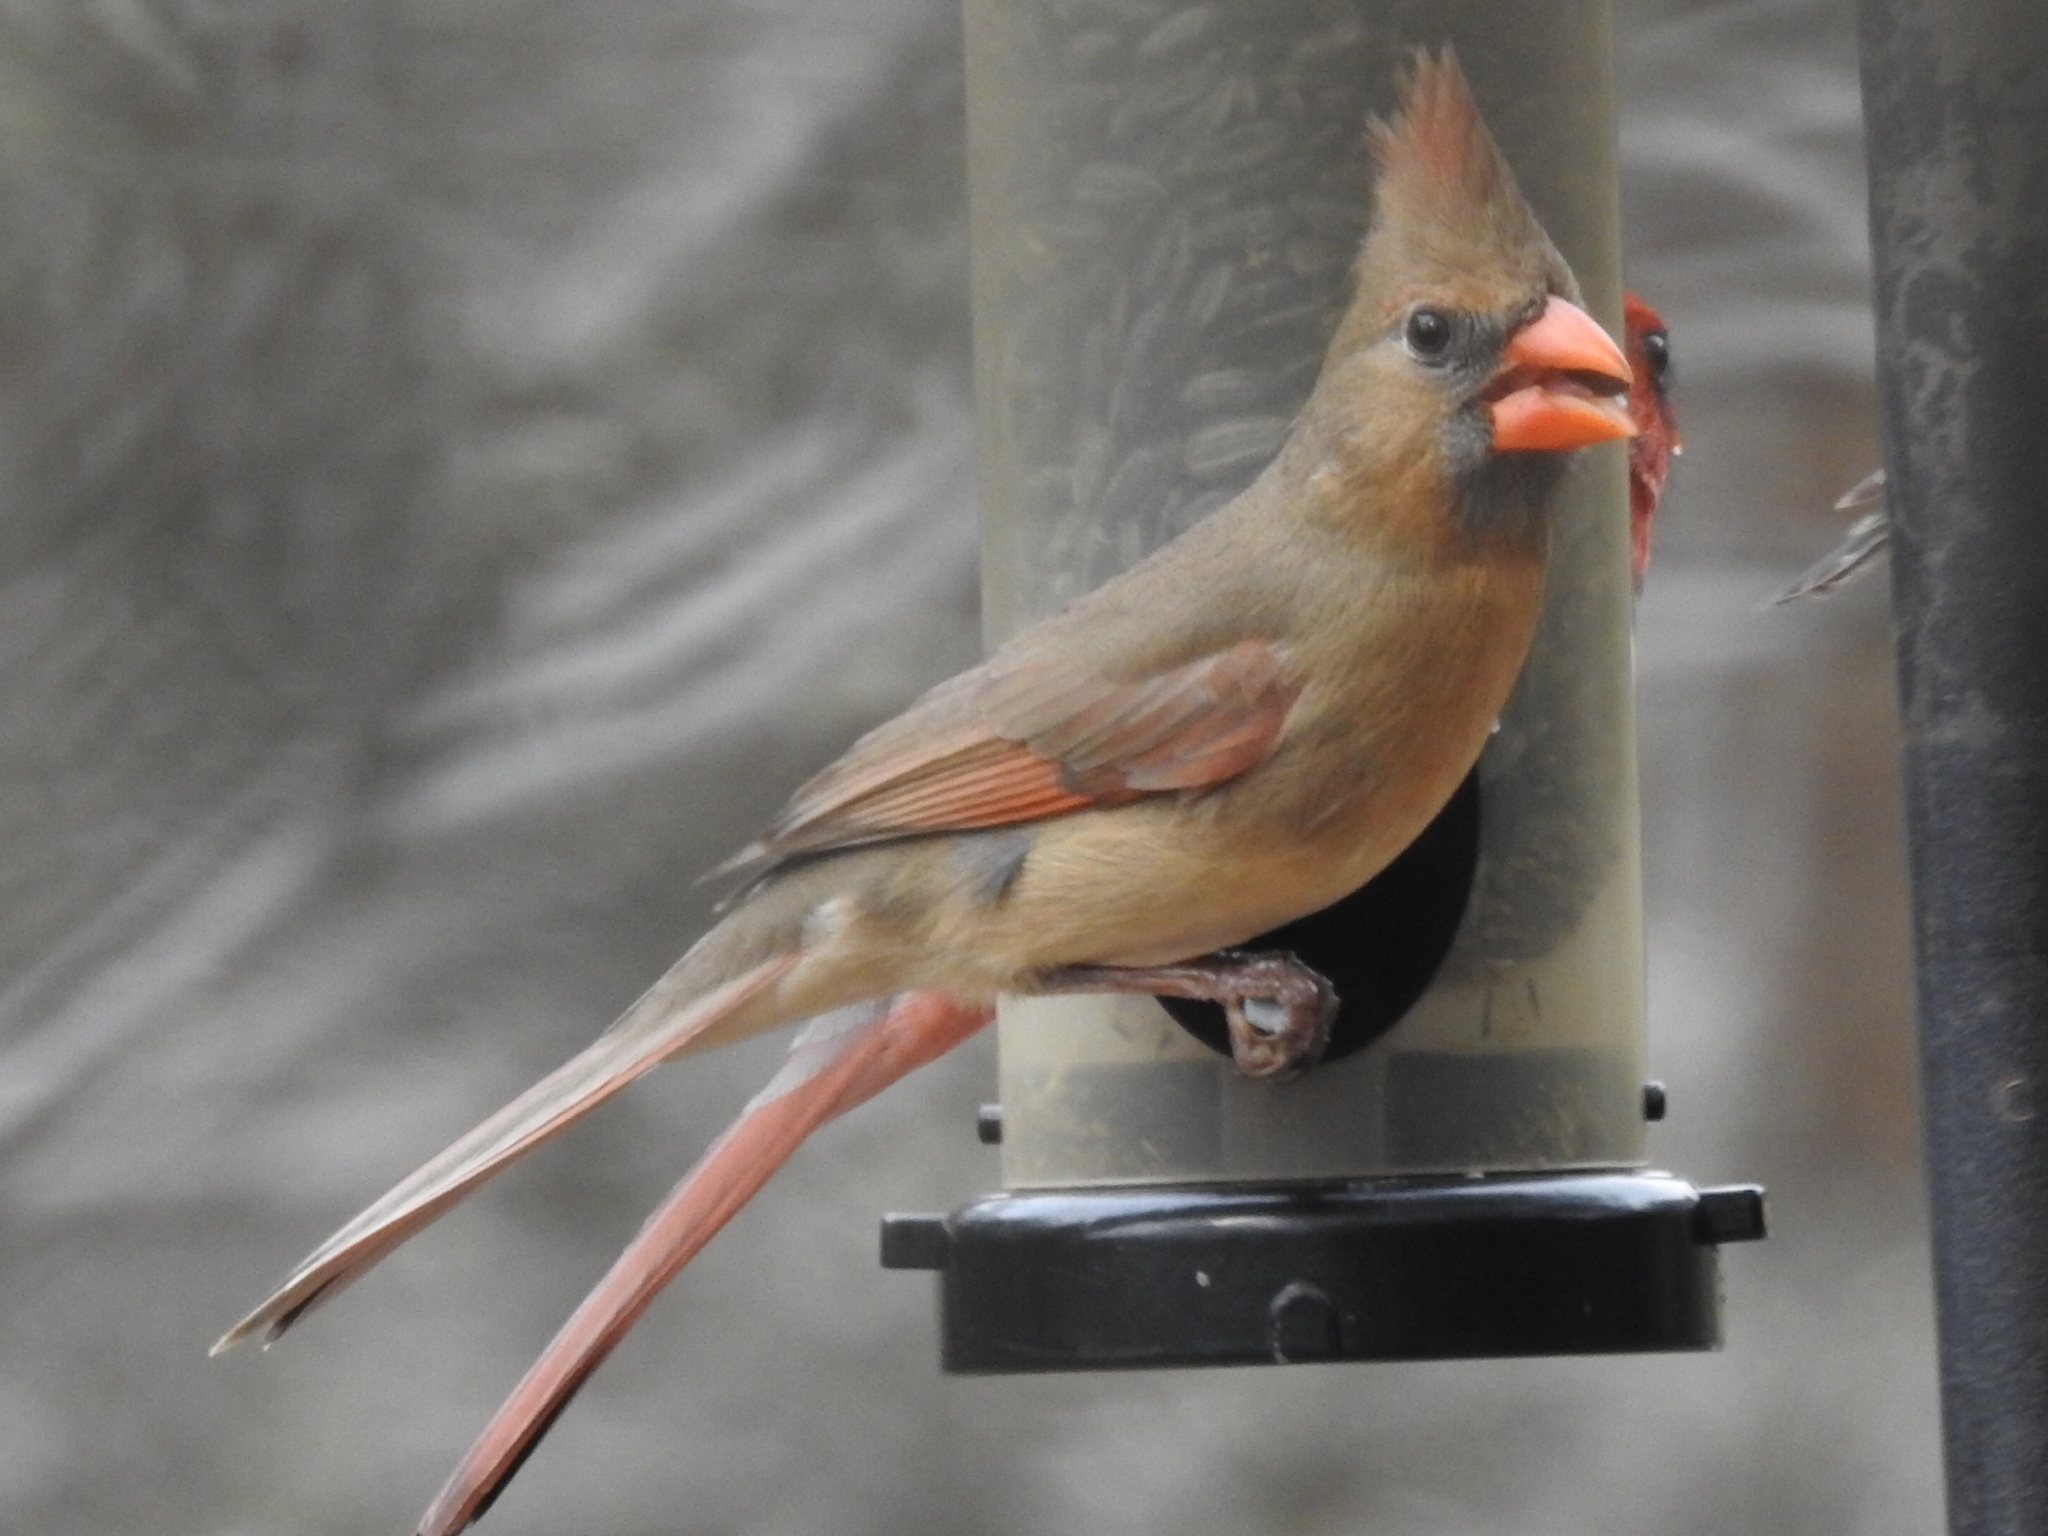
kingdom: Animalia
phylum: Chordata
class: Aves
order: Passeriformes
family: Cardinalidae
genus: Cardinalis
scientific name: Cardinalis cardinalis
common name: Northern cardinal
